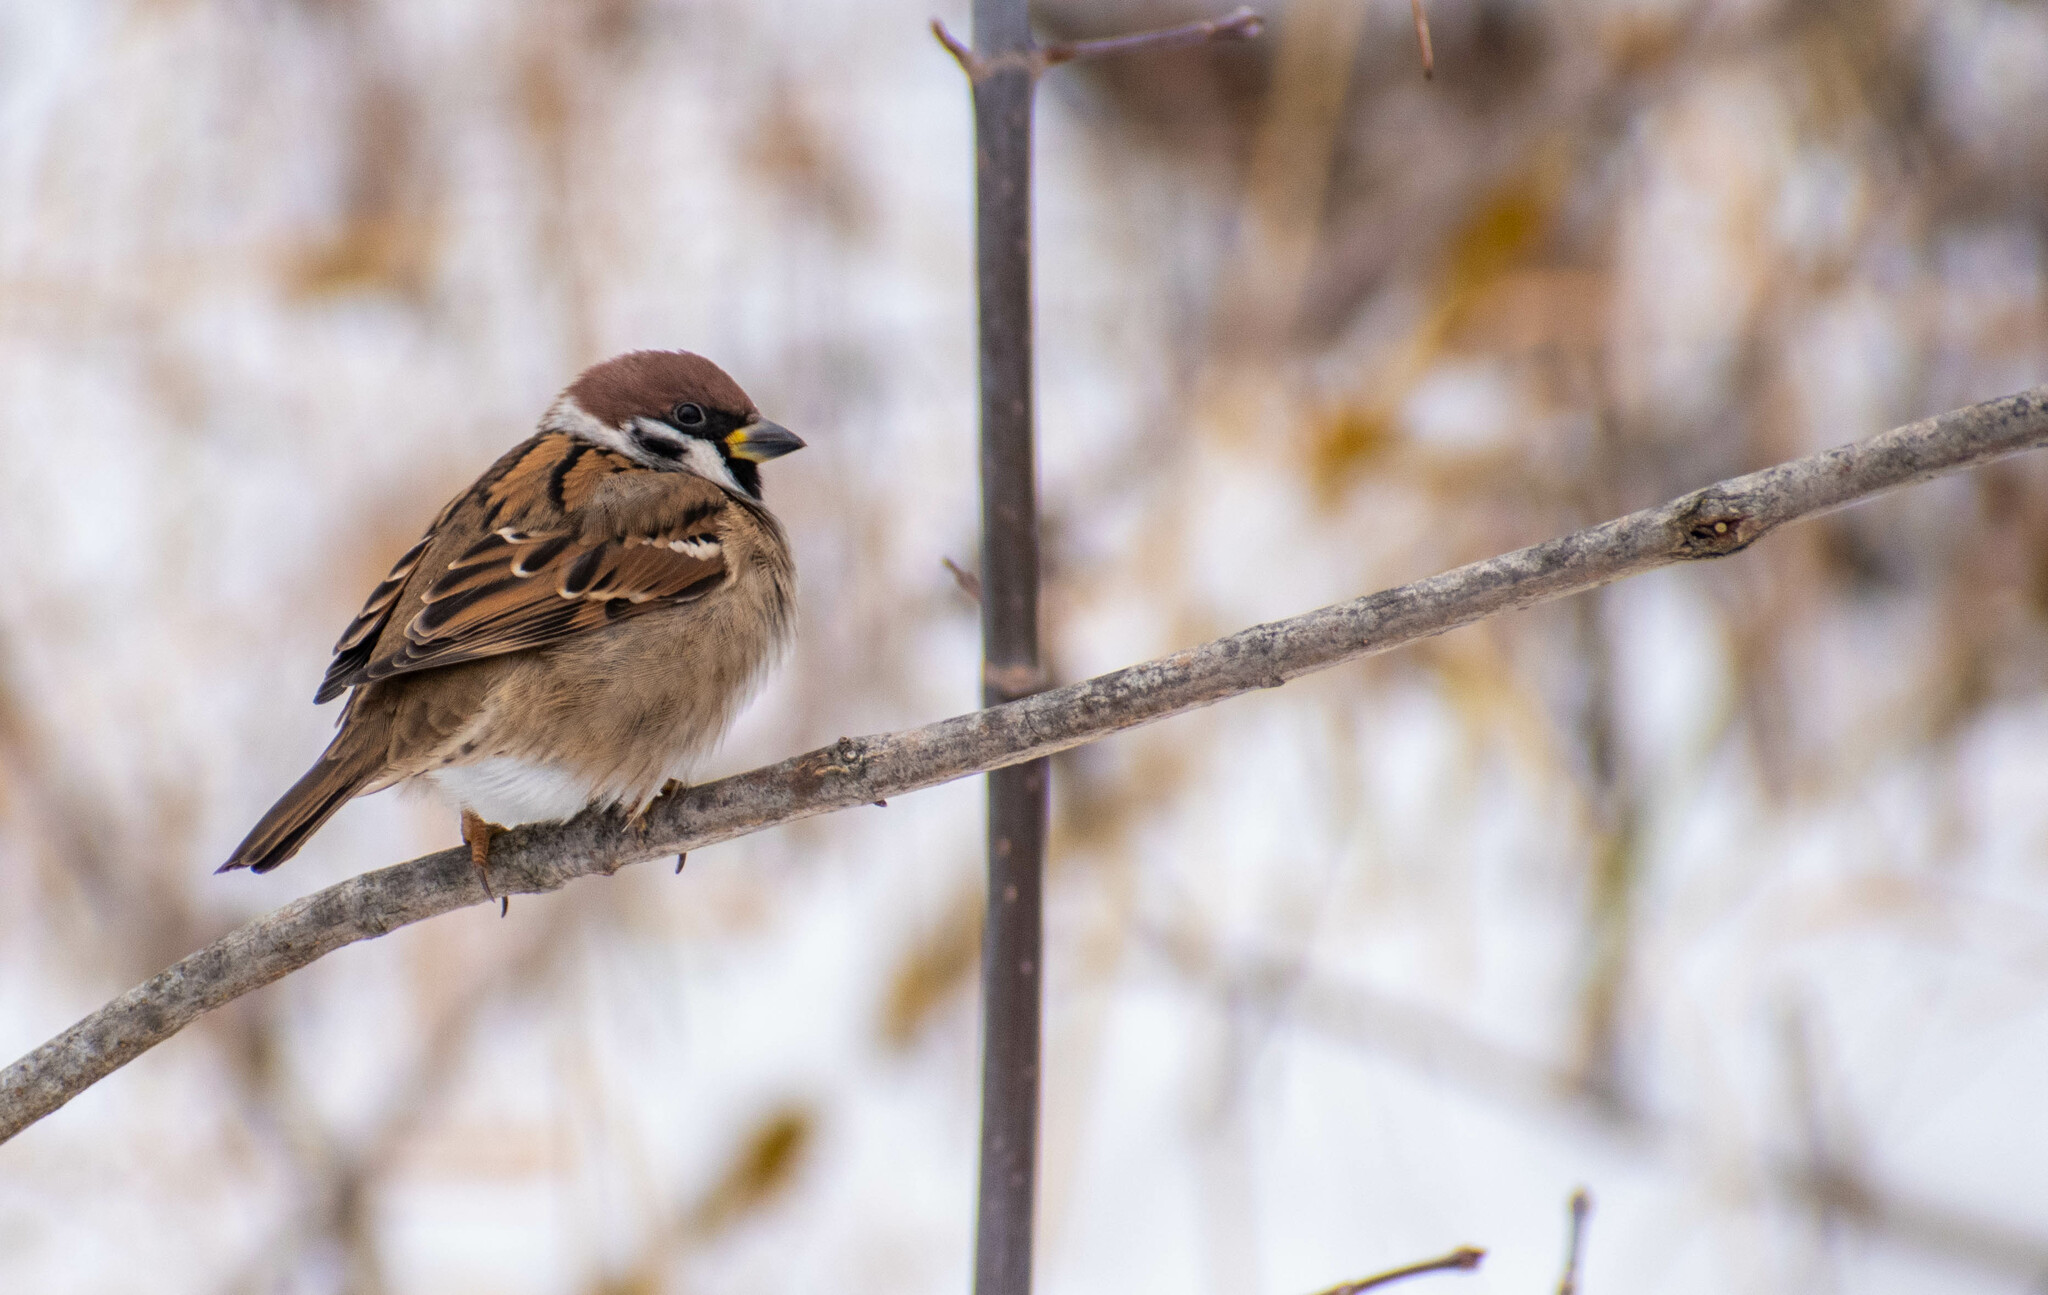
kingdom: Animalia
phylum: Chordata
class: Aves
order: Passeriformes
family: Passeridae
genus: Passer
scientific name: Passer montanus
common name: Eurasian tree sparrow
